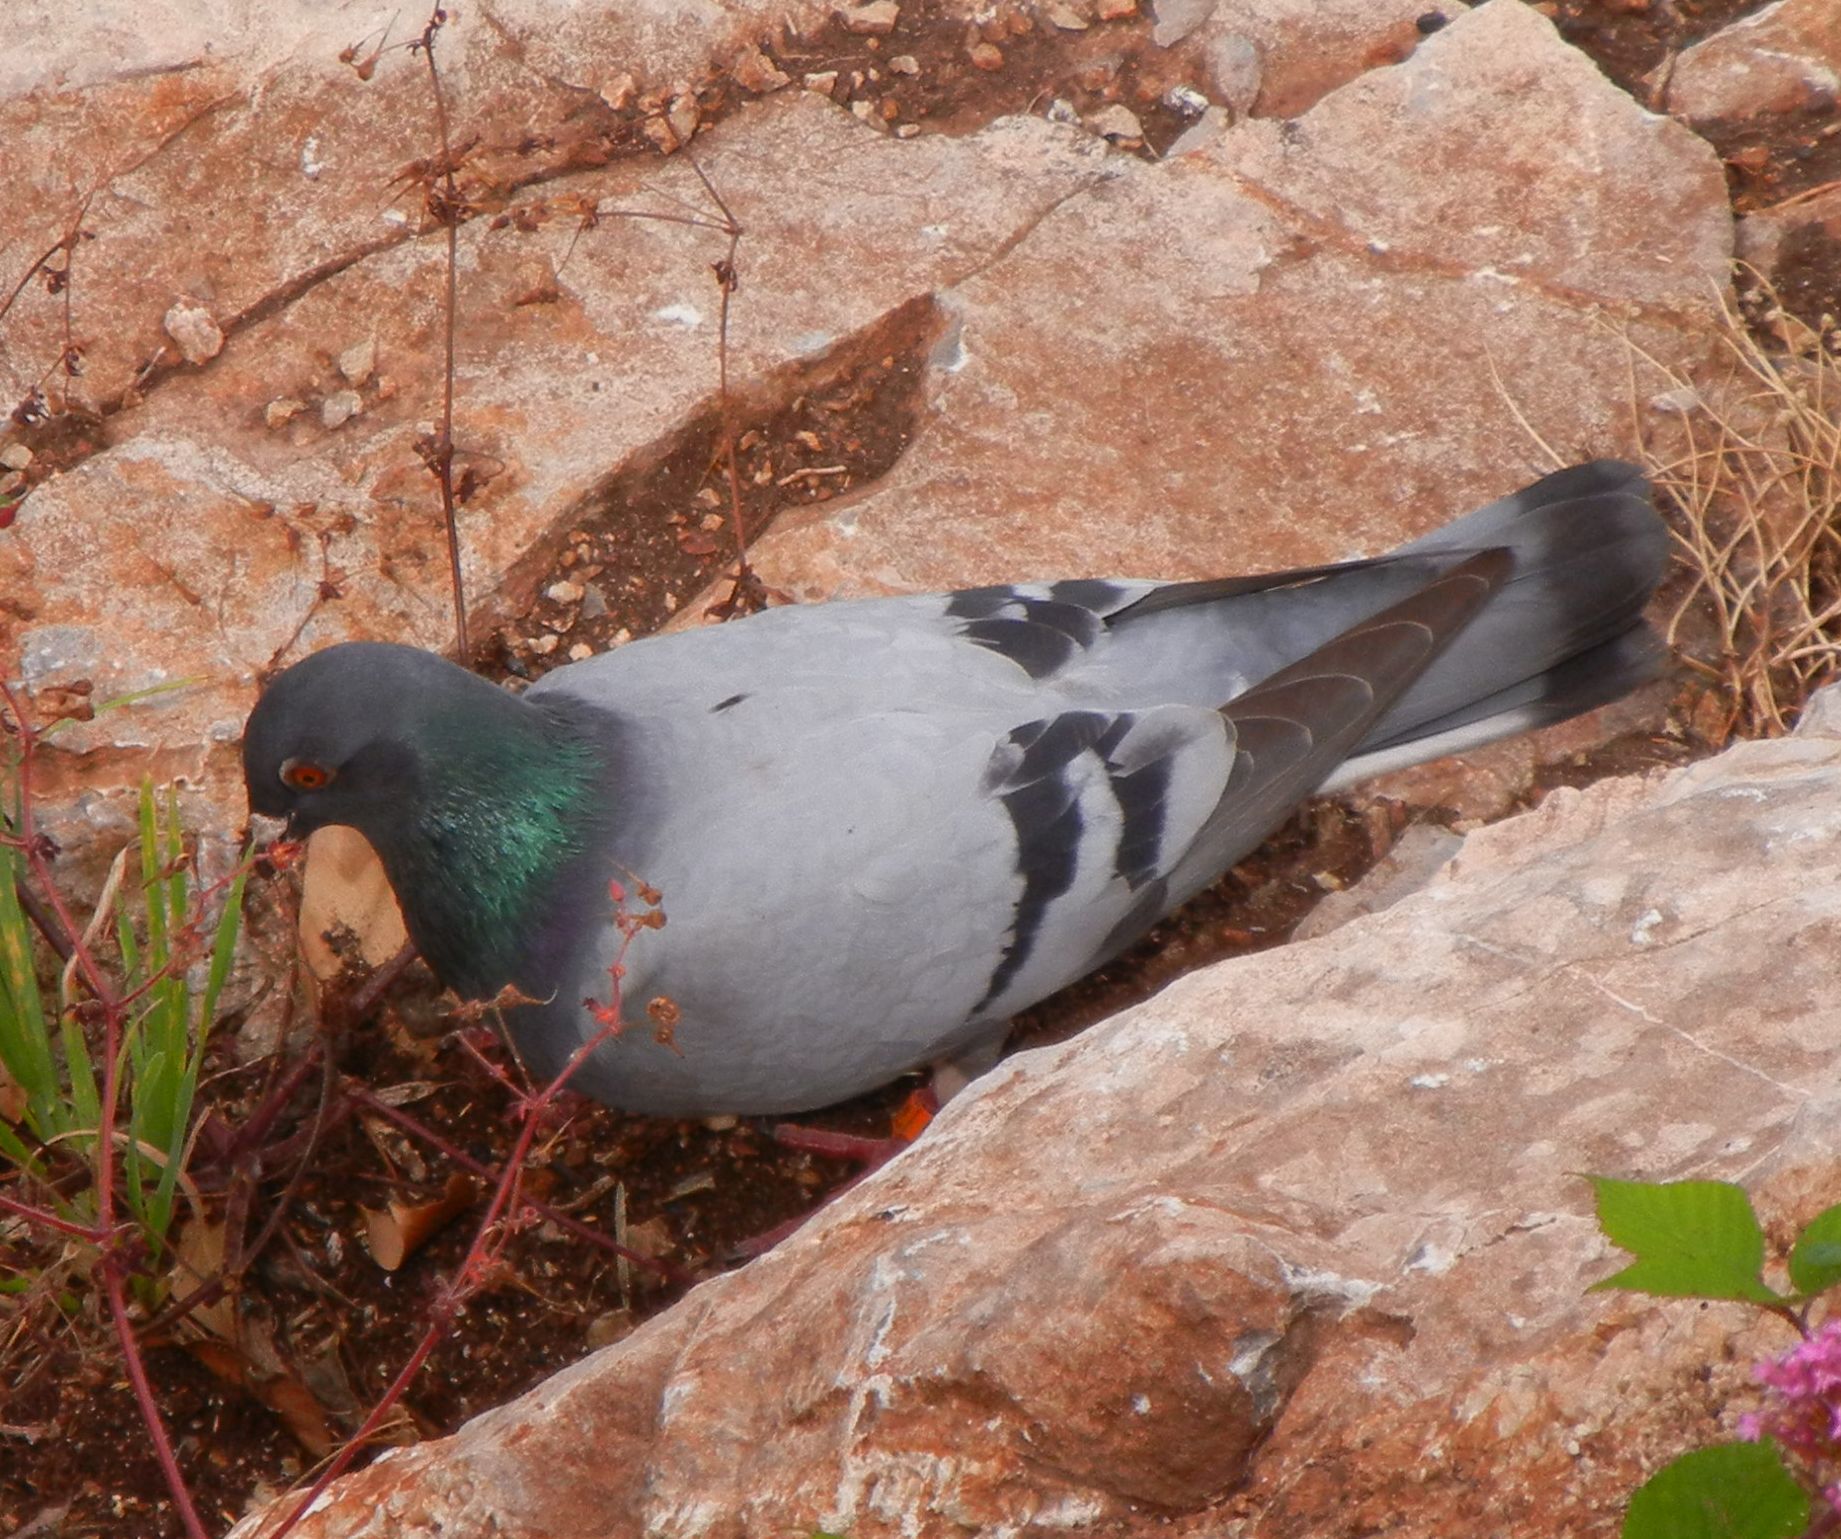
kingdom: Animalia
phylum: Chordata
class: Aves
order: Columbiformes
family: Columbidae
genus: Columba
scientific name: Columba livia
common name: Rock pigeon
